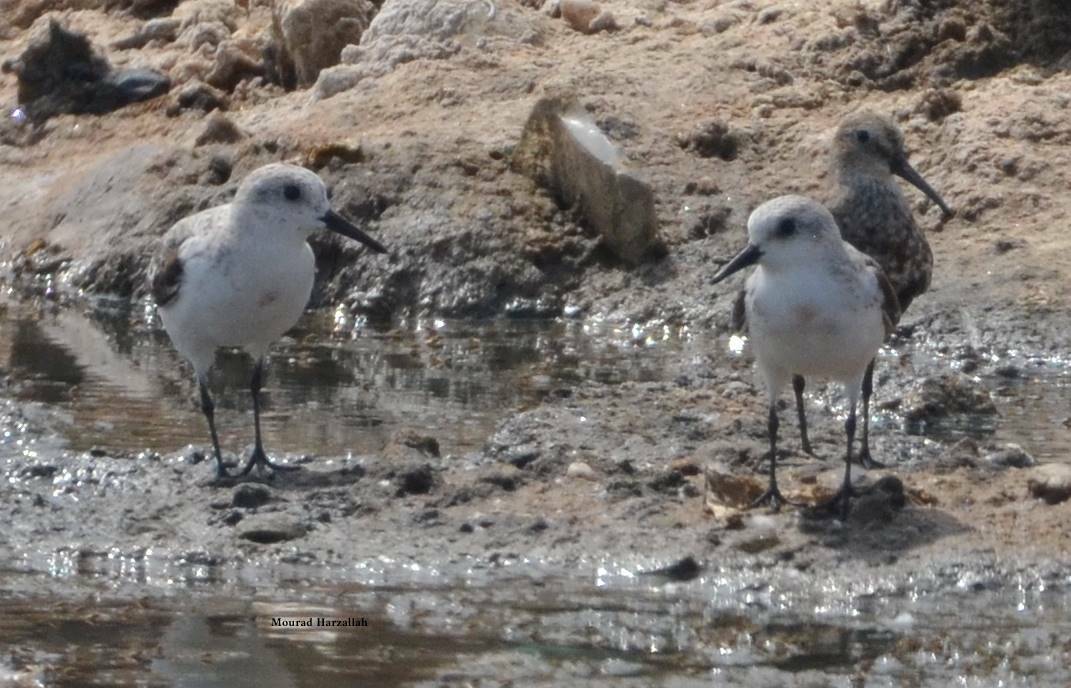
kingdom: Animalia
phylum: Chordata
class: Aves
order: Charadriiformes
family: Scolopacidae
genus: Calidris
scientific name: Calidris alba
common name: Sanderling
